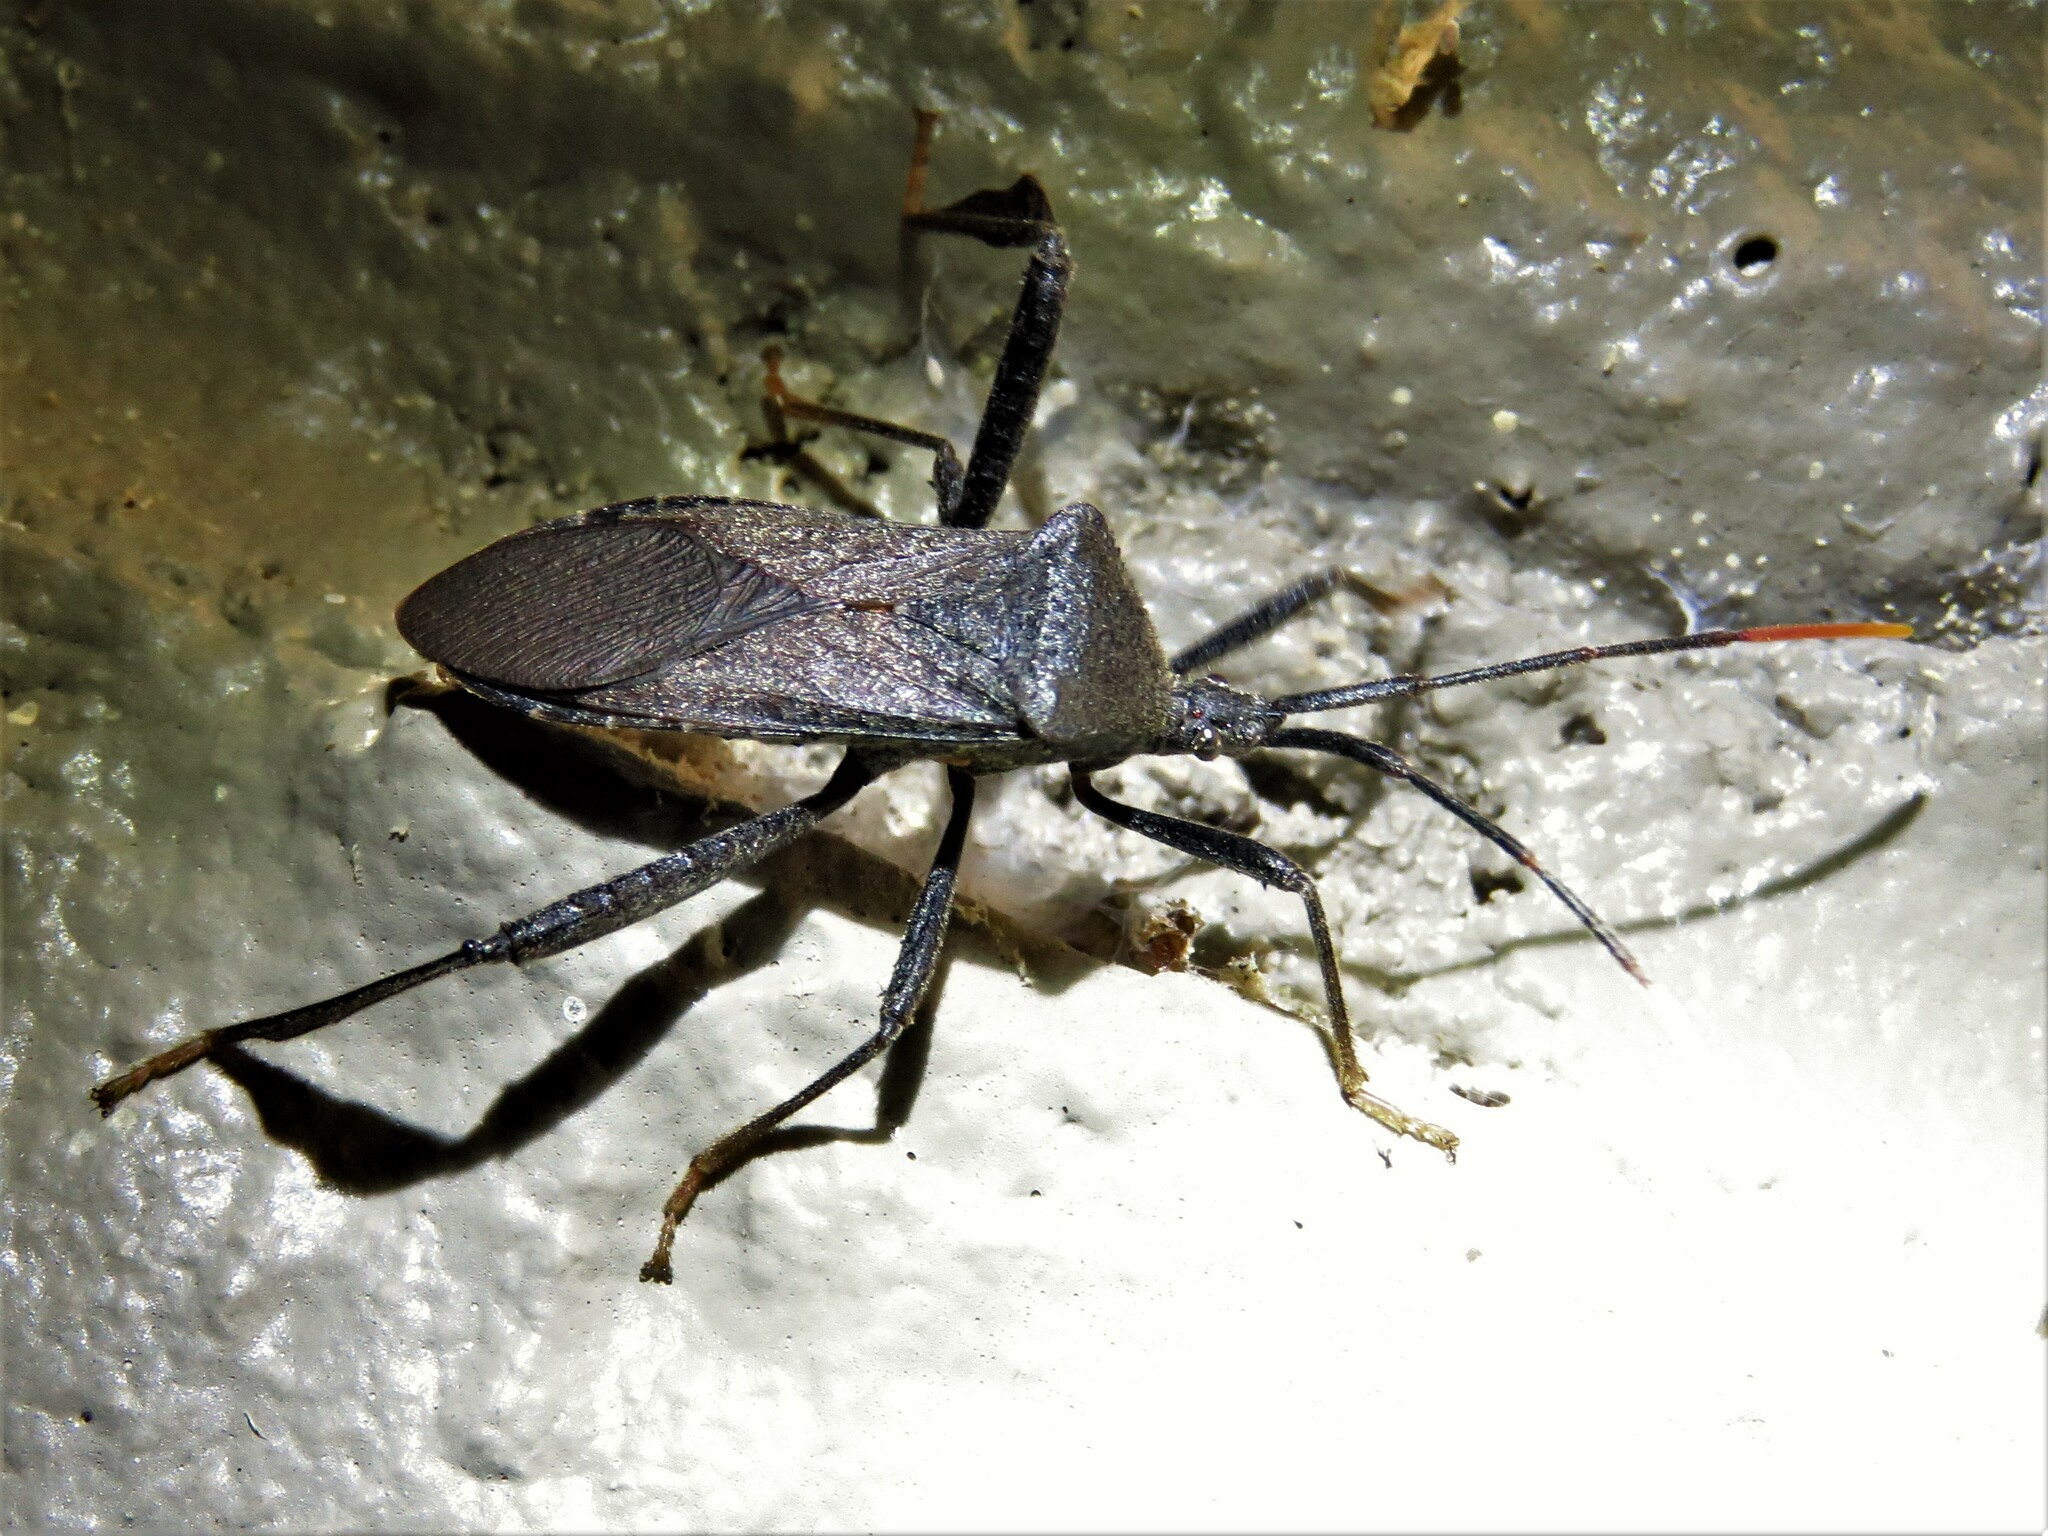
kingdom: Animalia
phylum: Arthropoda
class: Insecta
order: Hemiptera
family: Coreidae
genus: Acanthocephala
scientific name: Acanthocephala terminalis
